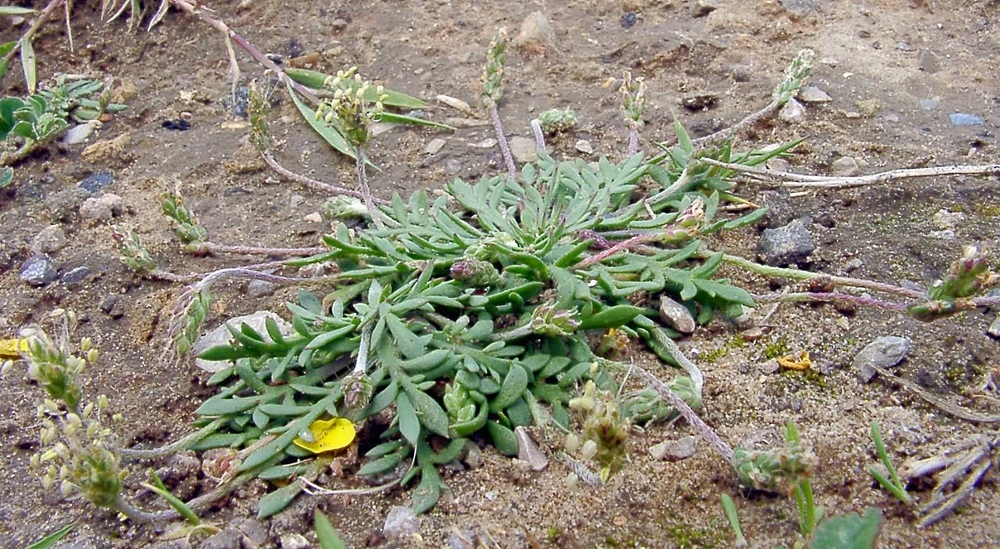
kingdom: Plantae
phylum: Tracheophyta
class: Magnoliopsida
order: Lamiales
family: Plantaginaceae
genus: Plantago
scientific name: Plantago coronopus
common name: Buck's-horn plantain
